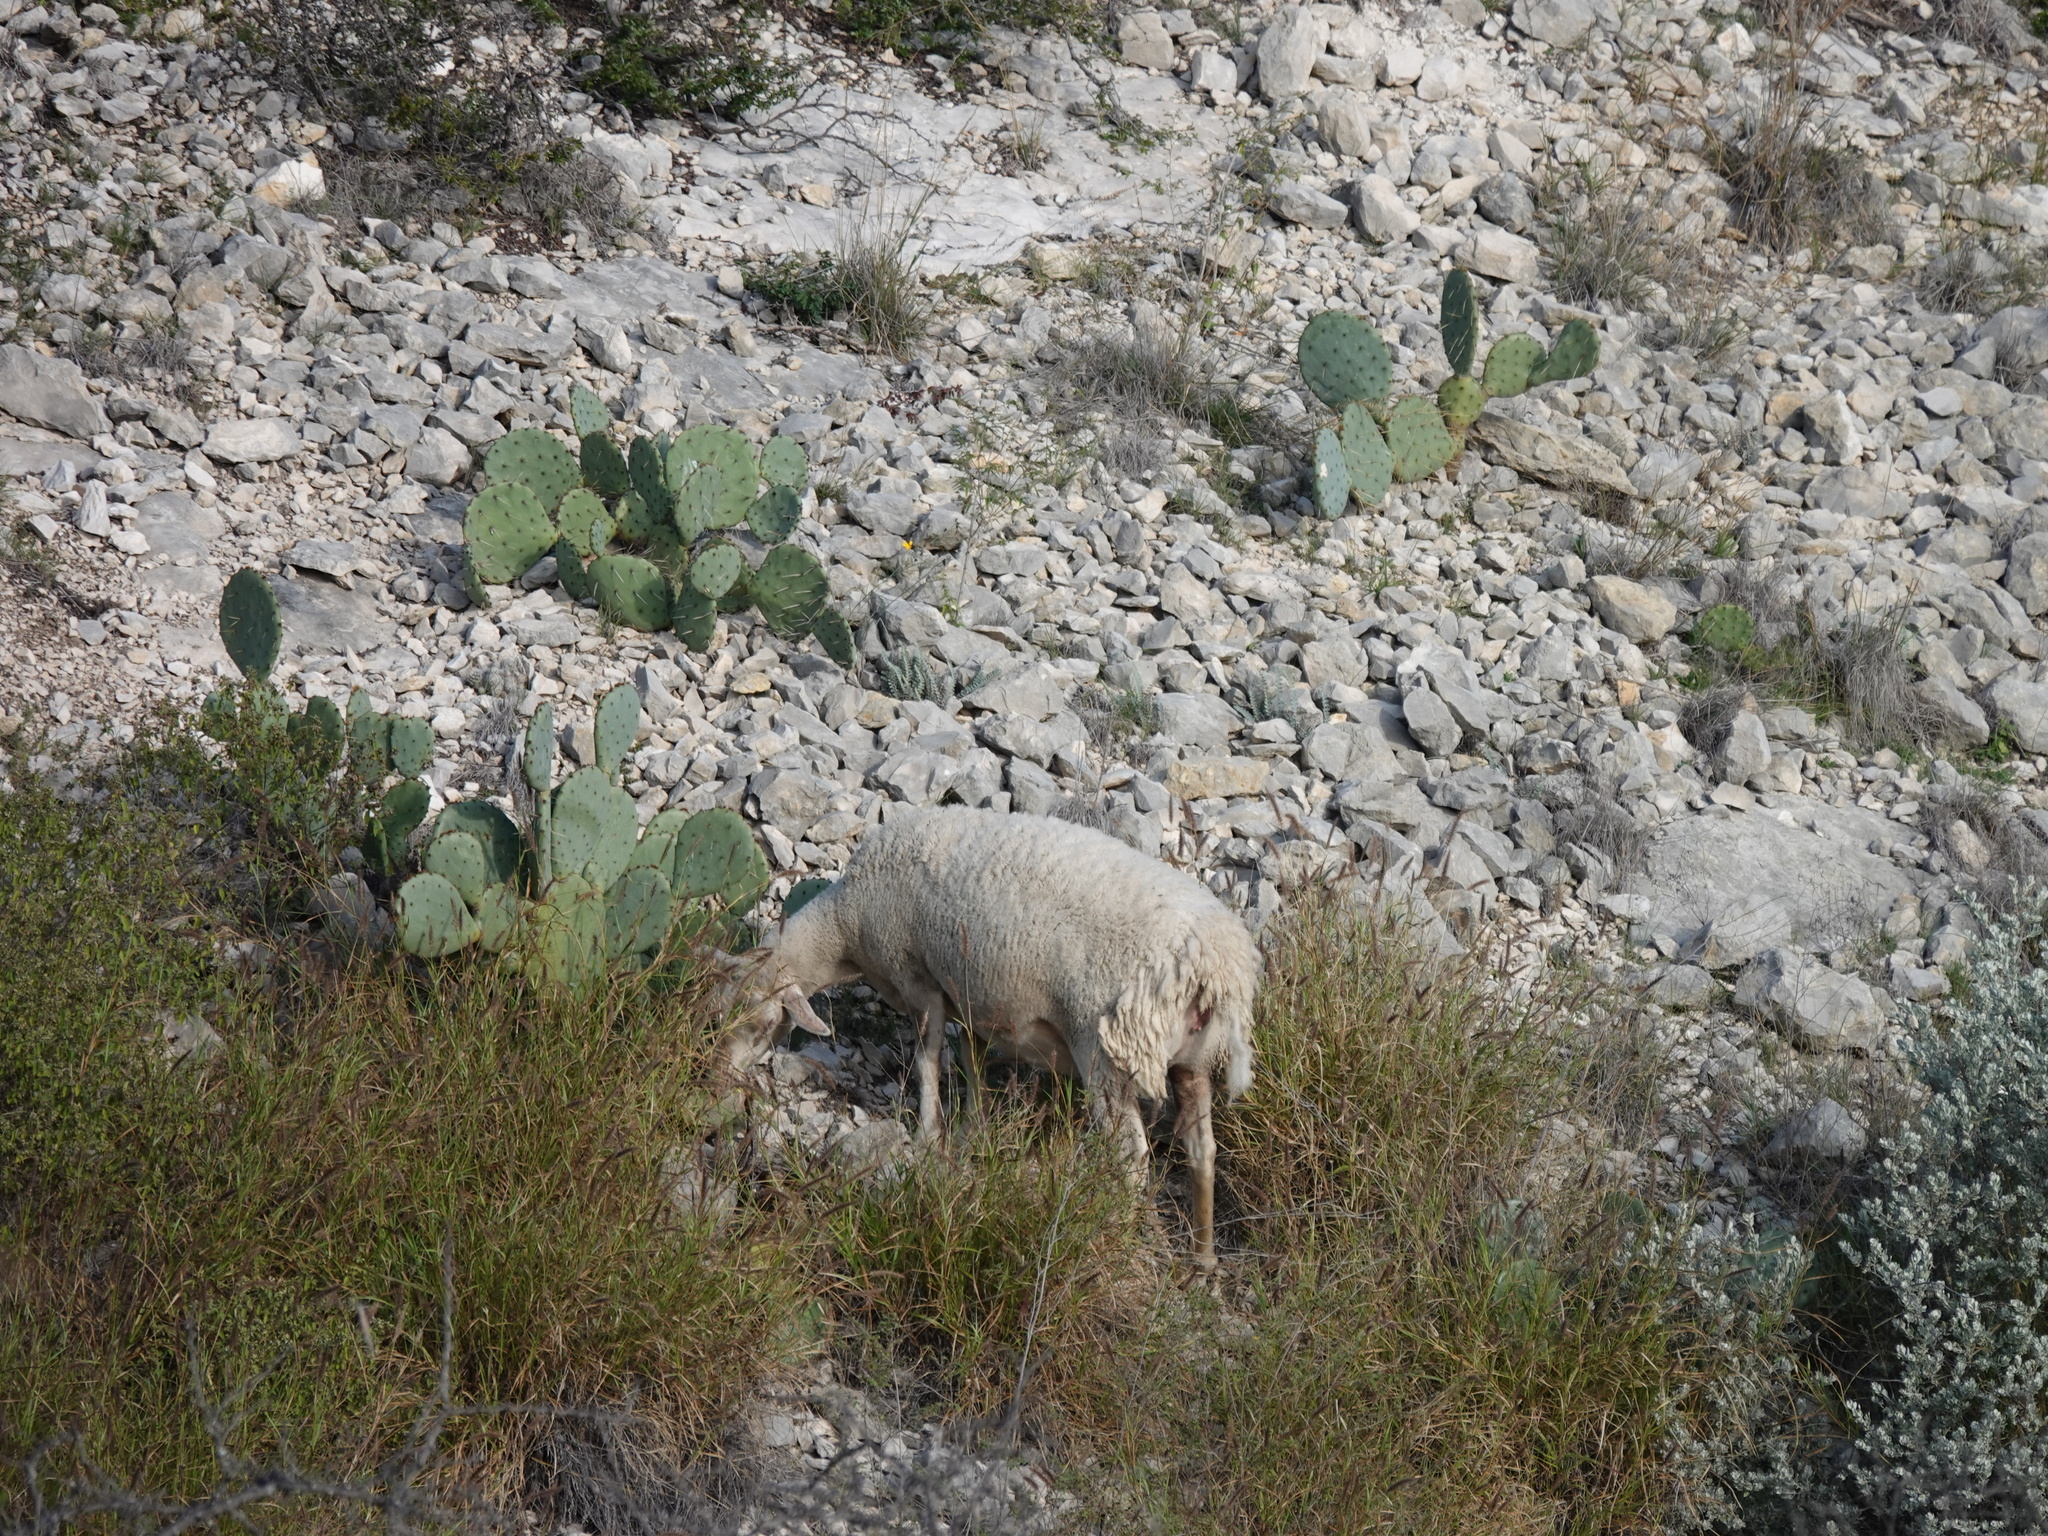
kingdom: Animalia
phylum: Chordata
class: Mammalia
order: Artiodactyla
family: Bovidae
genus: Ovis
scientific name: Ovis aries
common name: Domestic sheep
